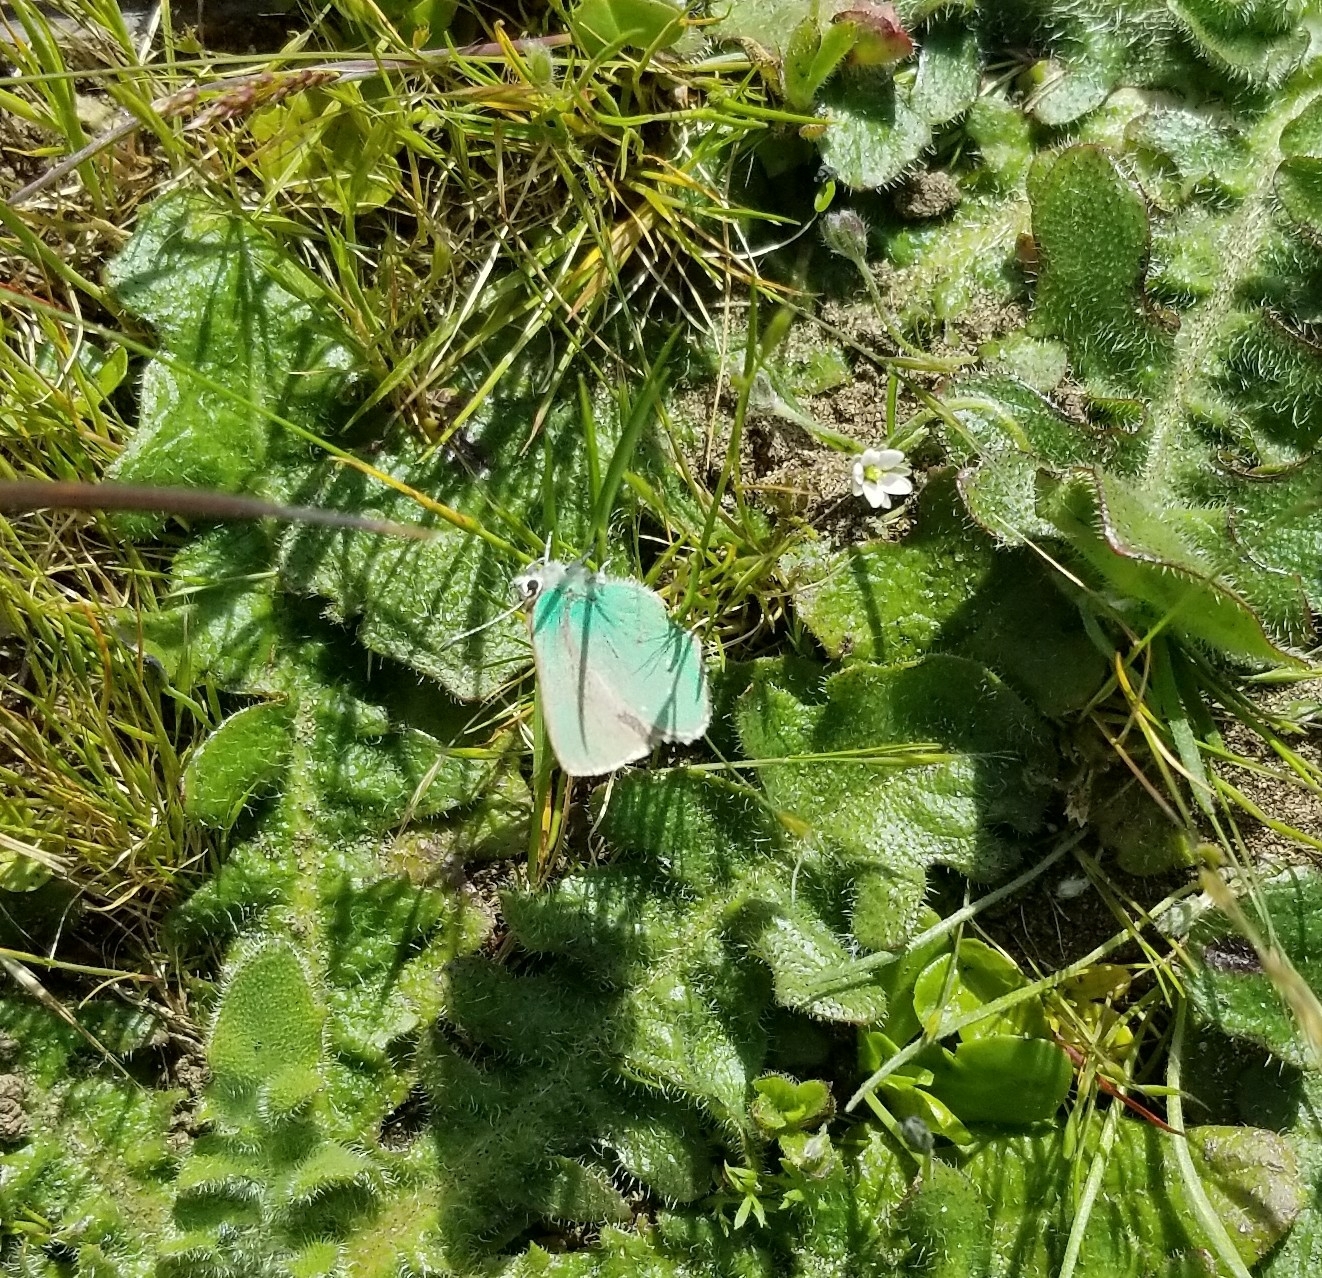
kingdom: Animalia
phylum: Arthropoda
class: Insecta
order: Lepidoptera
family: Lycaenidae
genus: Callophrys
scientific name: Callophrys viridis
